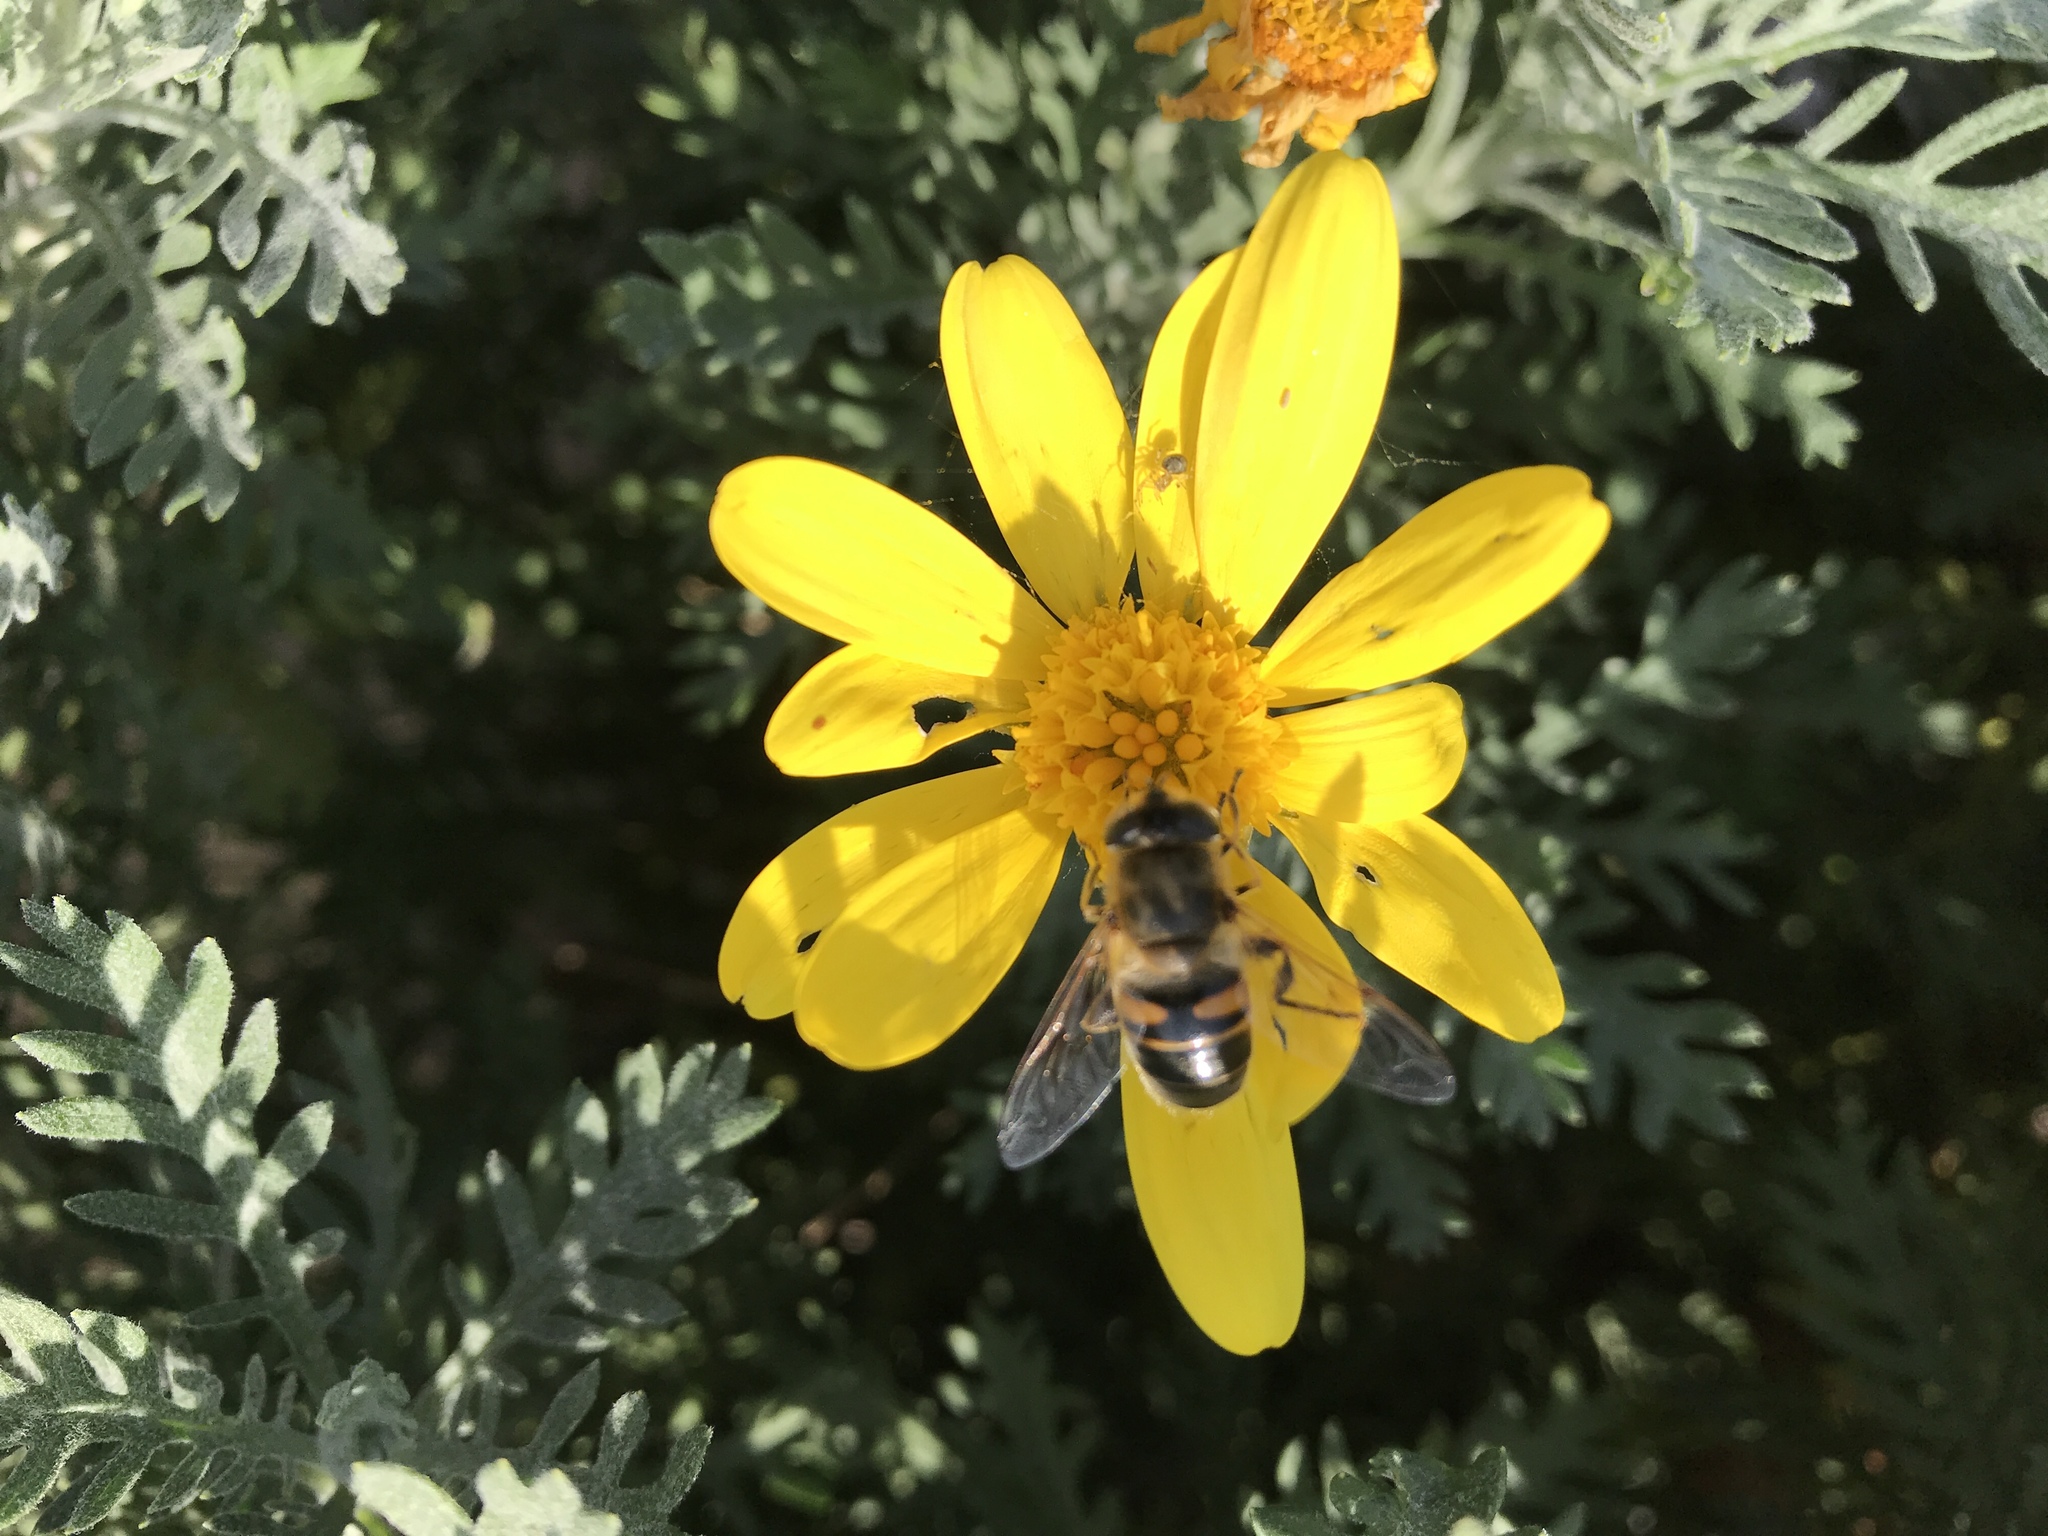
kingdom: Animalia
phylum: Arthropoda
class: Insecta
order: Diptera
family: Syrphidae
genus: Eristalis
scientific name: Eristalis tenax
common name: Drone fly
